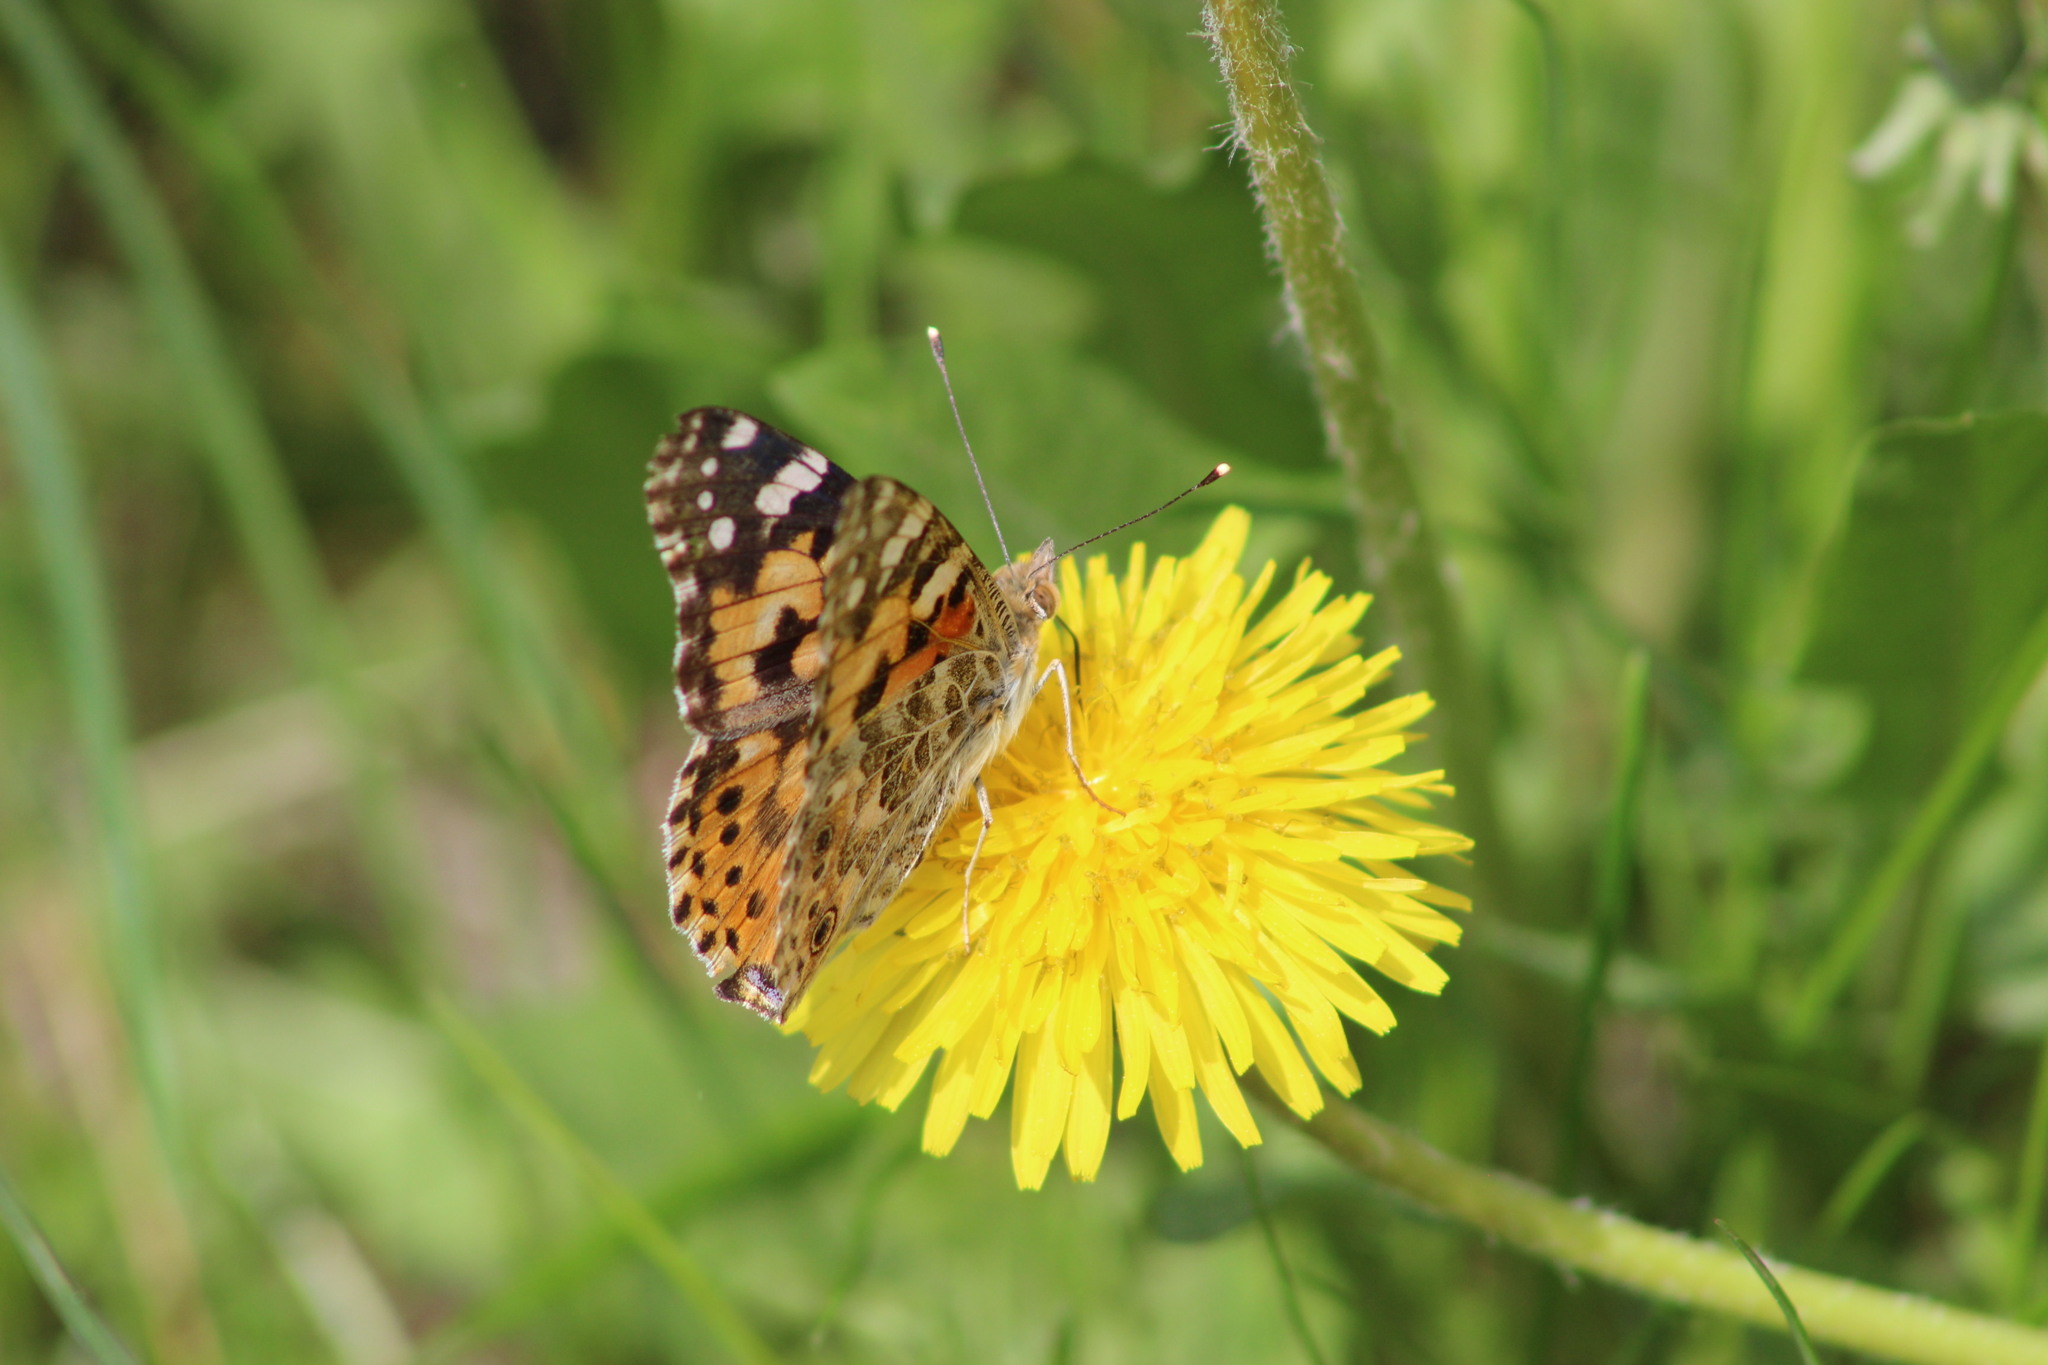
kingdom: Animalia
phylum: Arthropoda
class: Insecta
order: Lepidoptera
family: Nymphalidae
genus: Vanessa
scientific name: Vanessa cardui
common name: Painted lady
